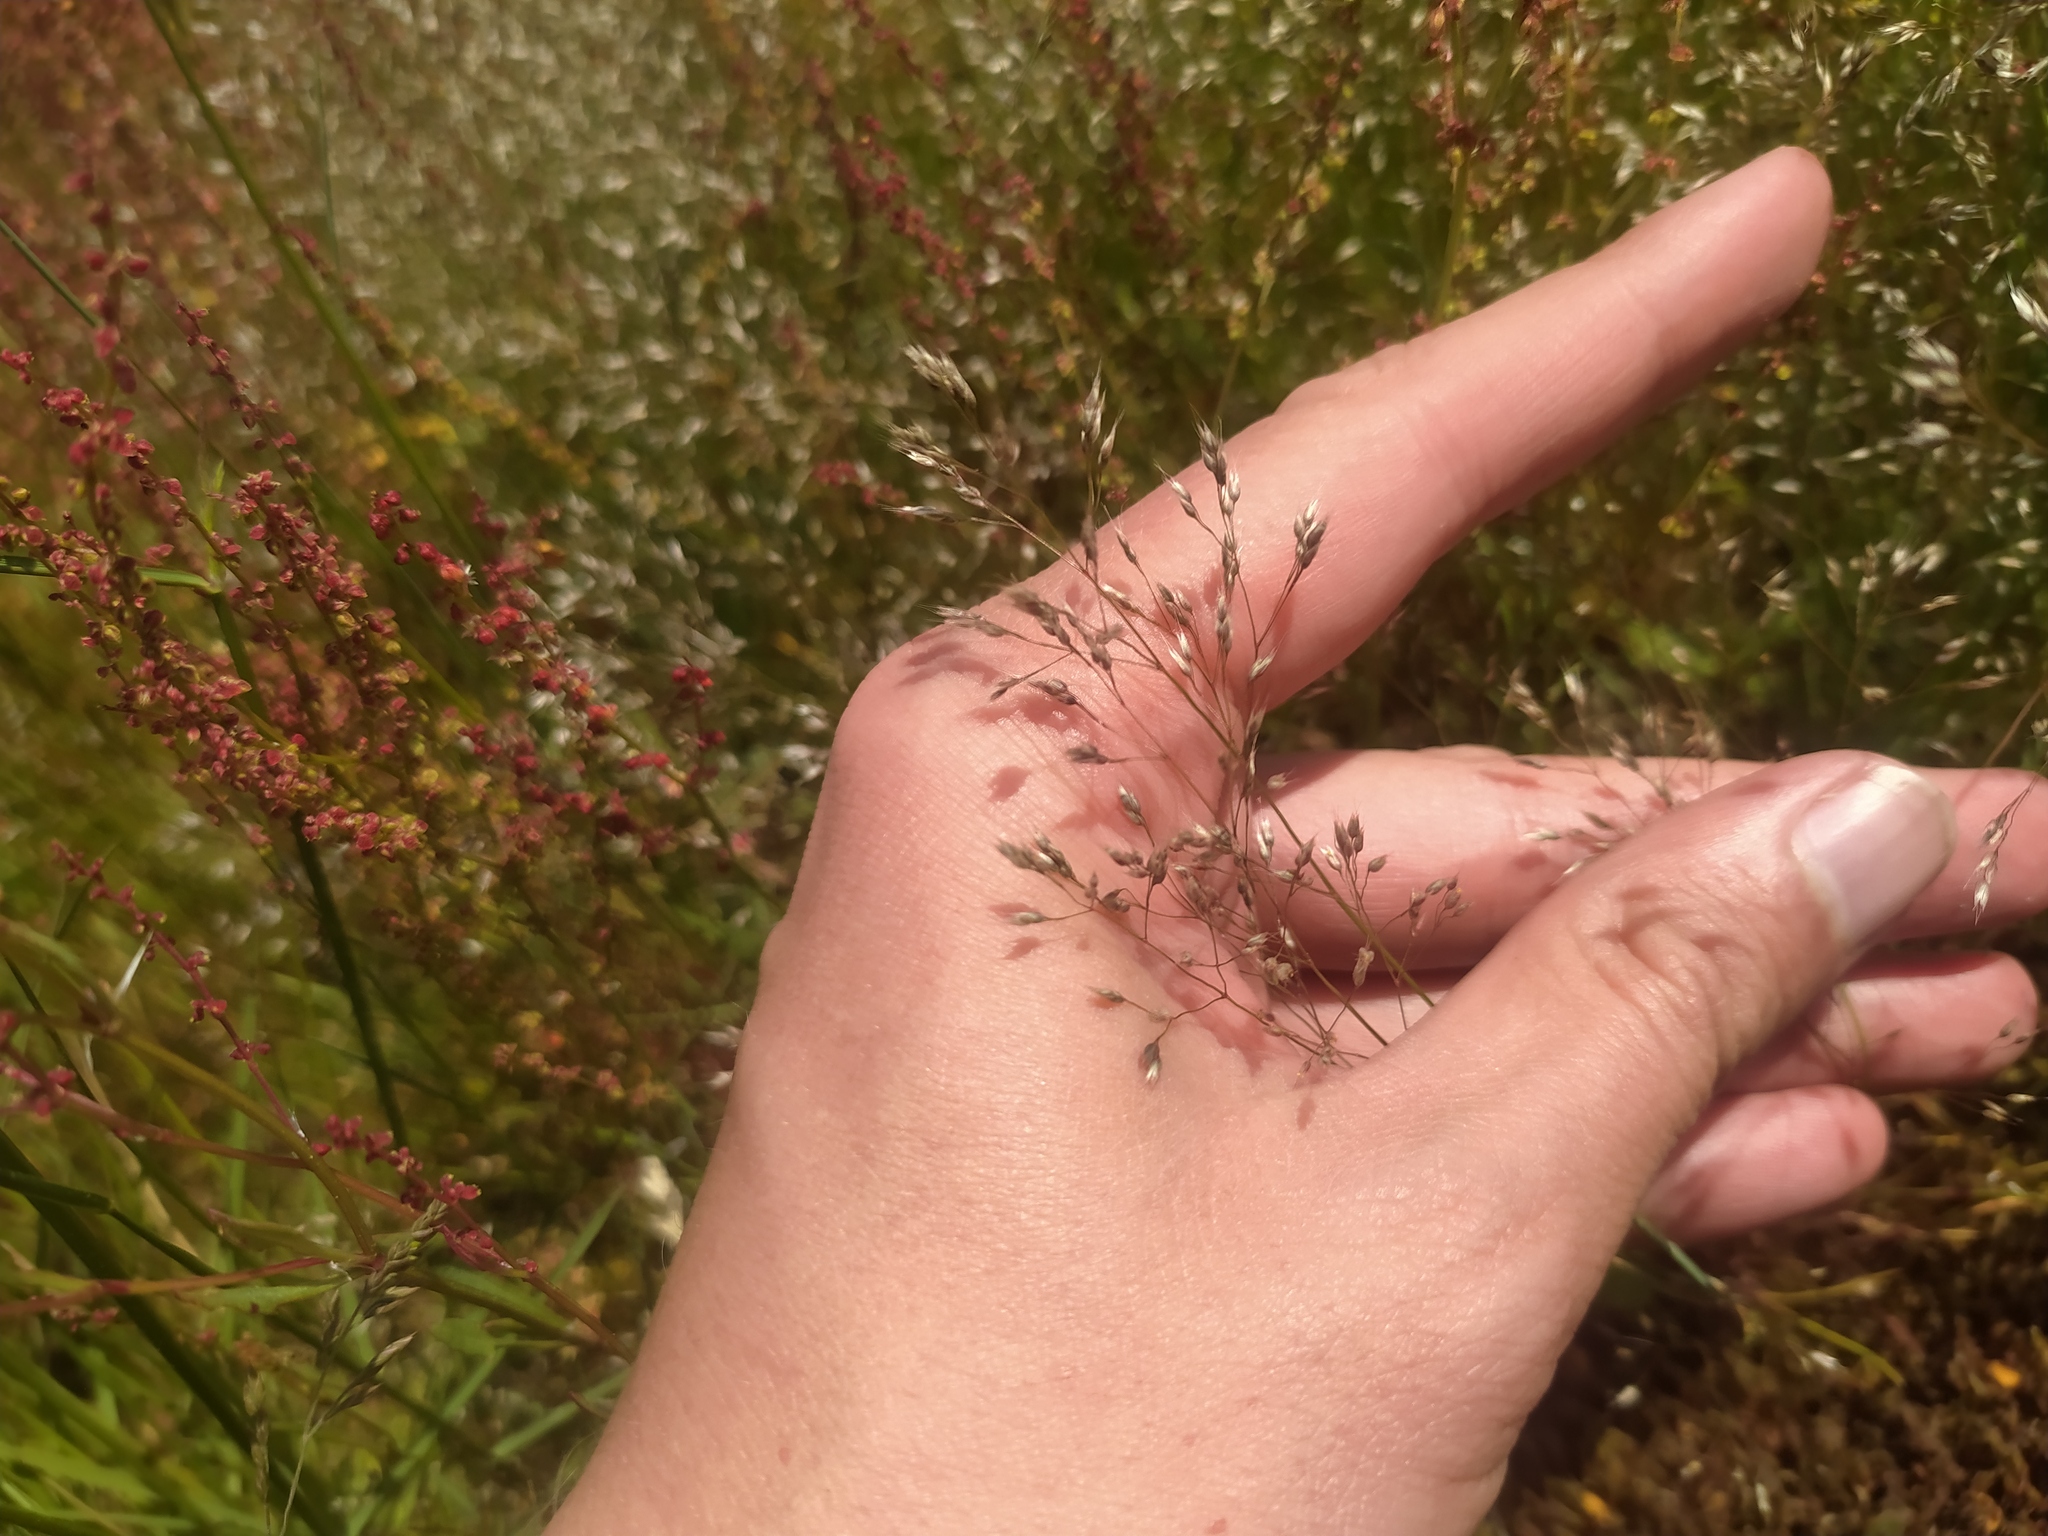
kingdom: Plantae
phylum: Tracheophyta
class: Liliopsida
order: Poales
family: Poaceae
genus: Aira
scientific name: Aira caryophyllea
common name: Silver hairgrass
